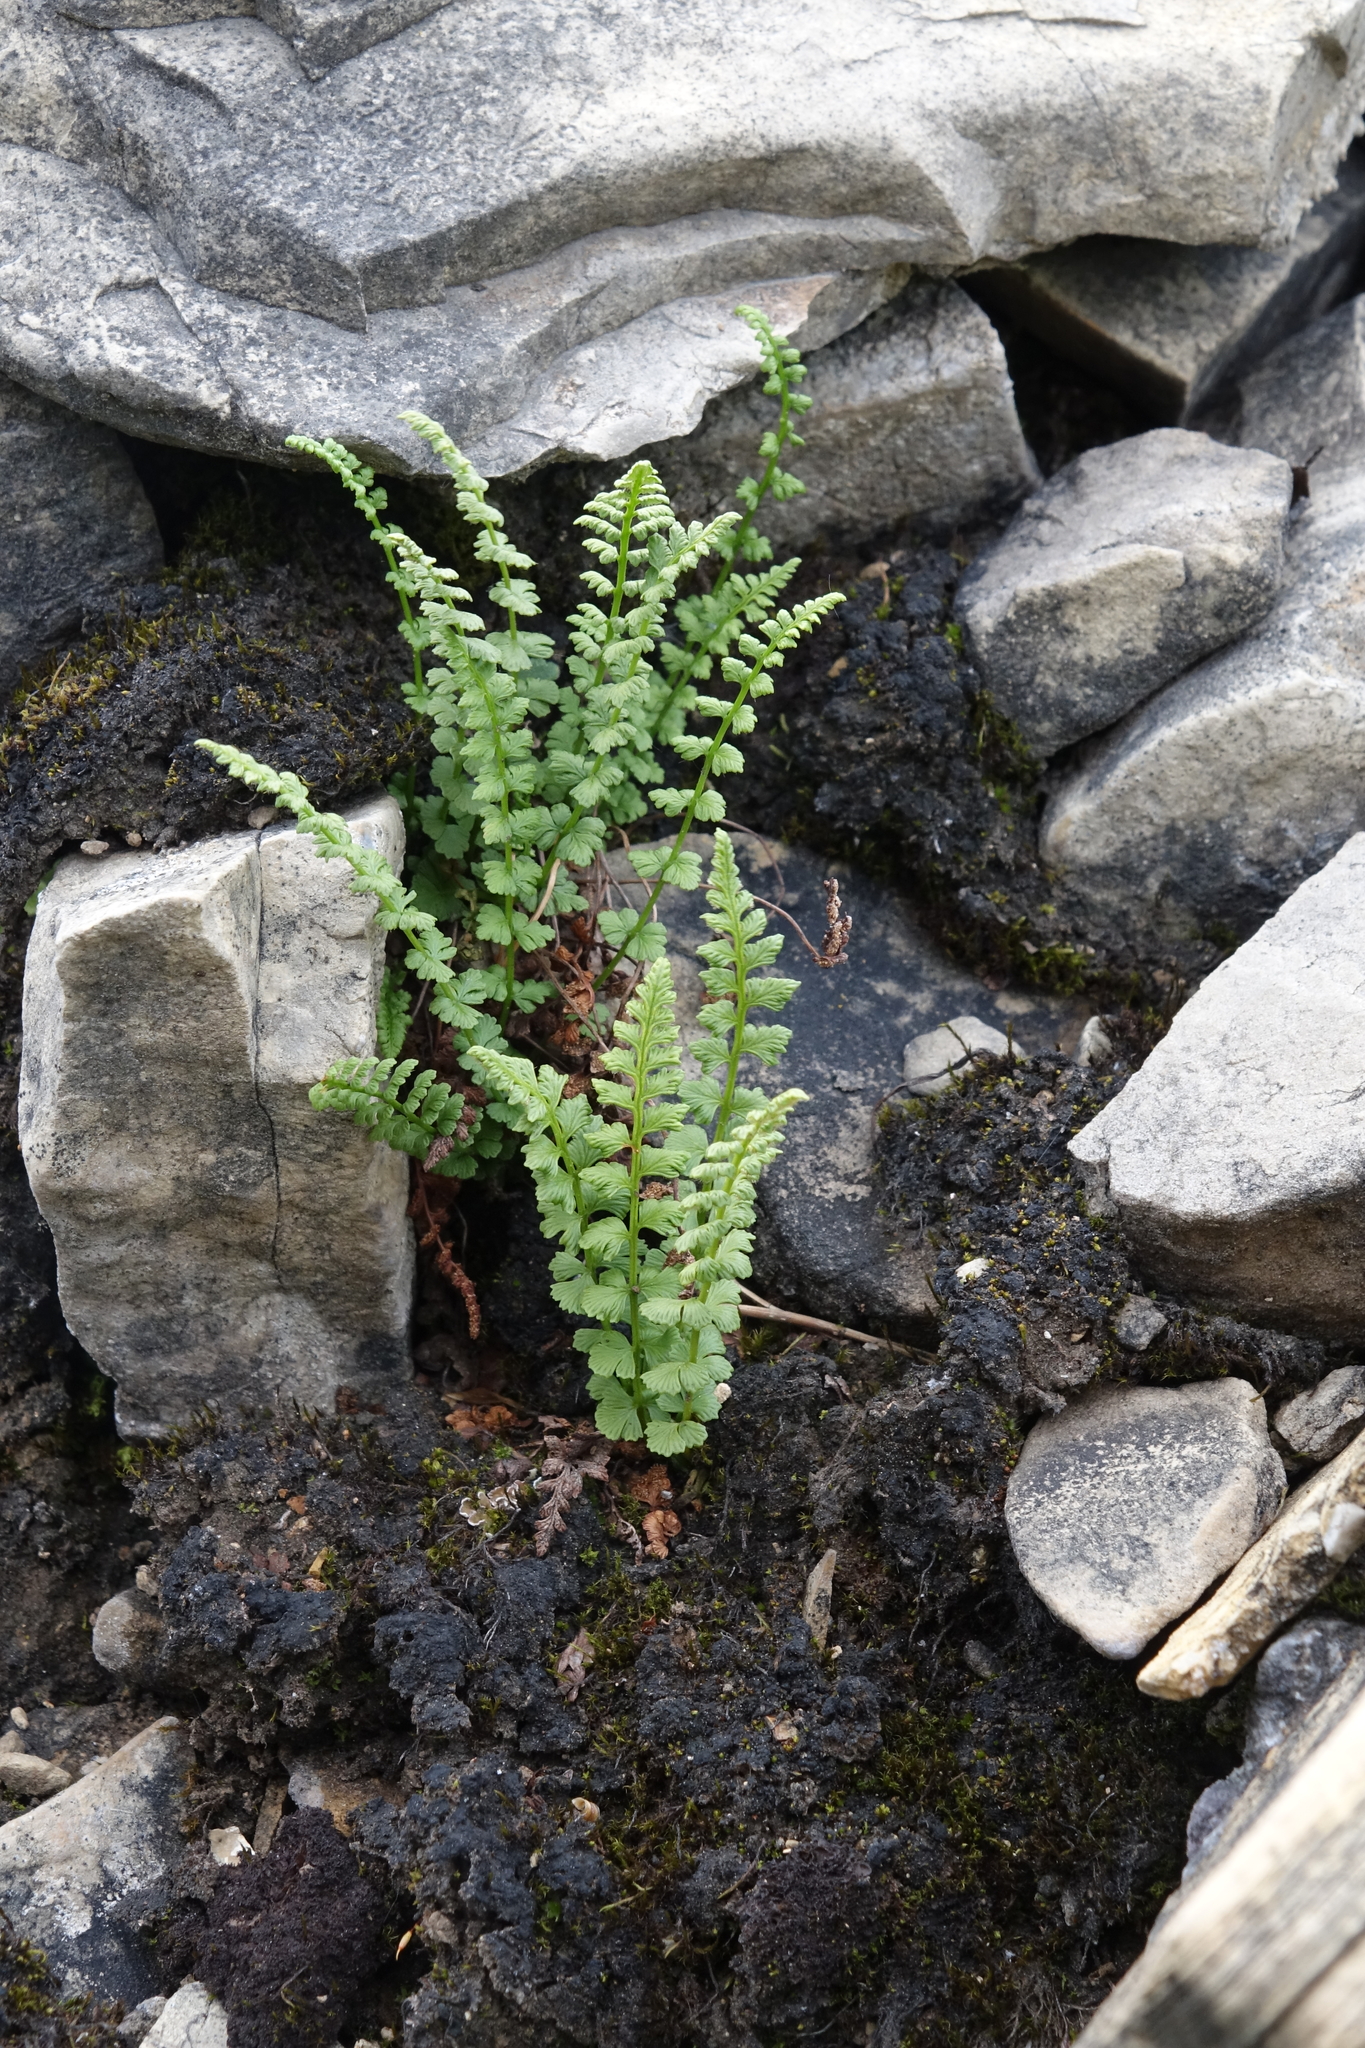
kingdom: Plantae
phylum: Tracheophyta
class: Polypodiopsida
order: Polypodiales
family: Woodsiaceae
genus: Woodsia
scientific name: Woodsia glabella
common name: Smooth woodsia
